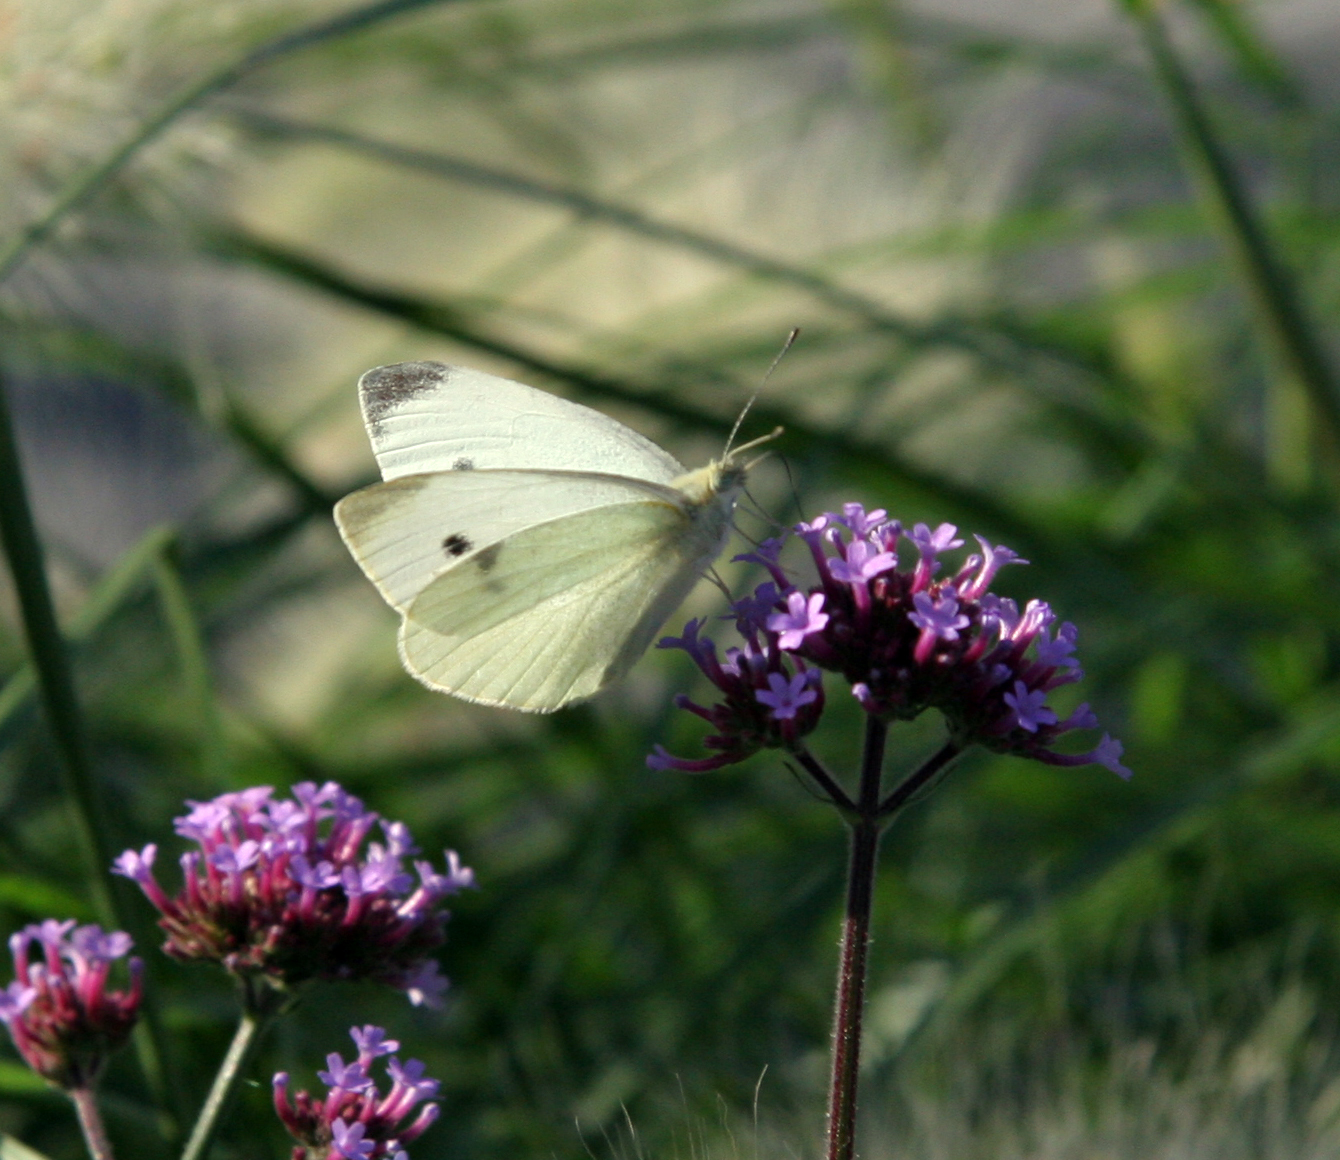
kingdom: Animalia
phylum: Arthropoda
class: Insecta
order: Lepidoptera
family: Pieridae
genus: Pieris
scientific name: Pieris rapae
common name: Small white
